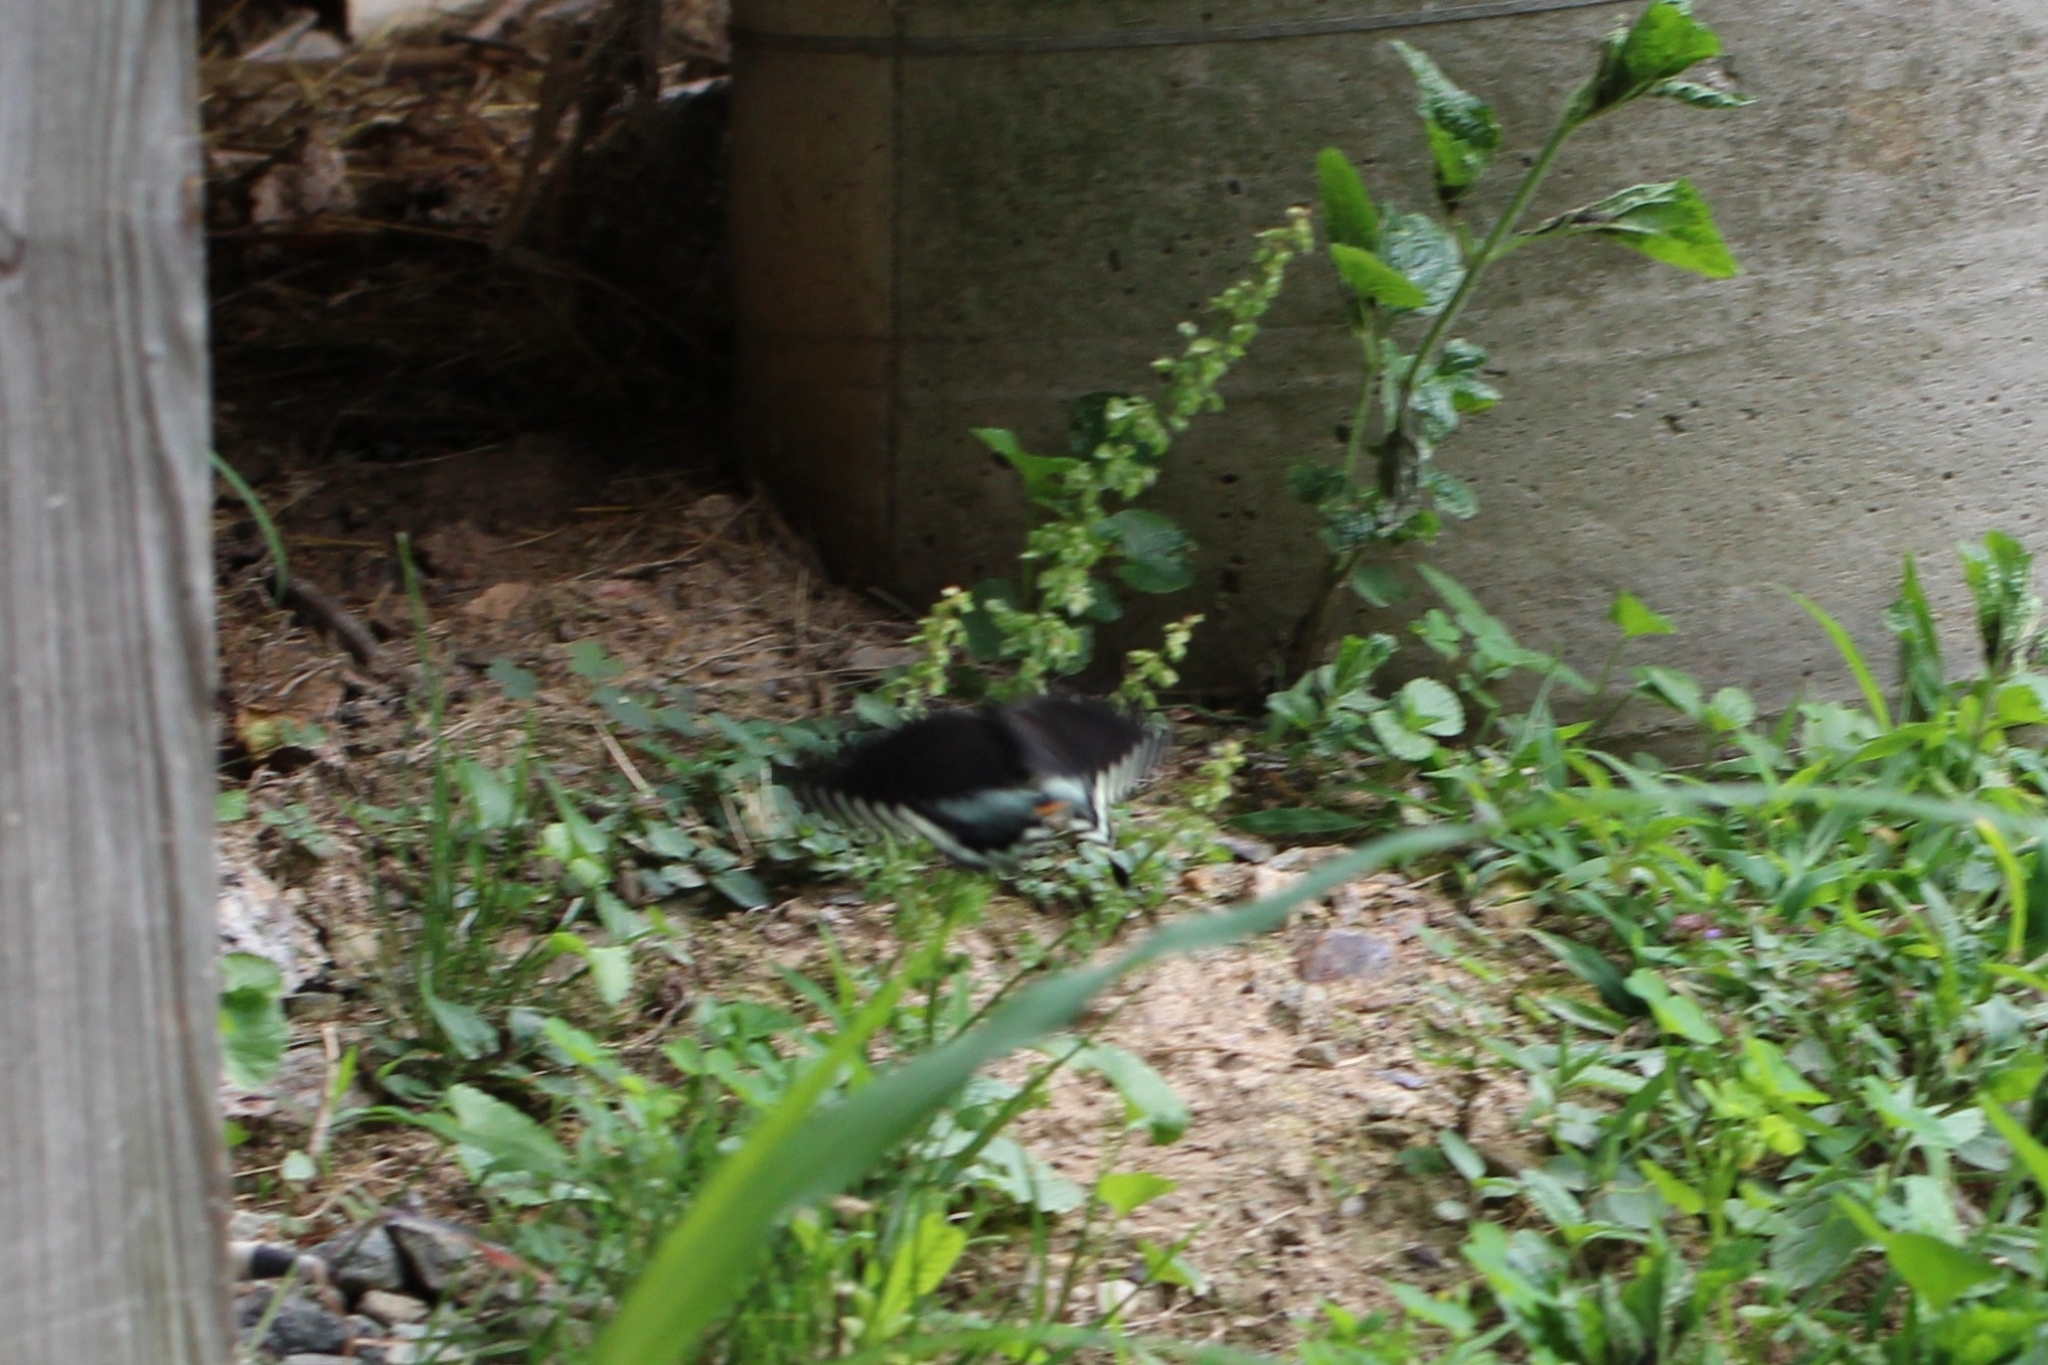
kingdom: Animalia
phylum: Arthropoda
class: Insecta
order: Lepidoptera
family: Papilionidae
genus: Papilio
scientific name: Papilio troilus
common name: Spicebush swallowtail
